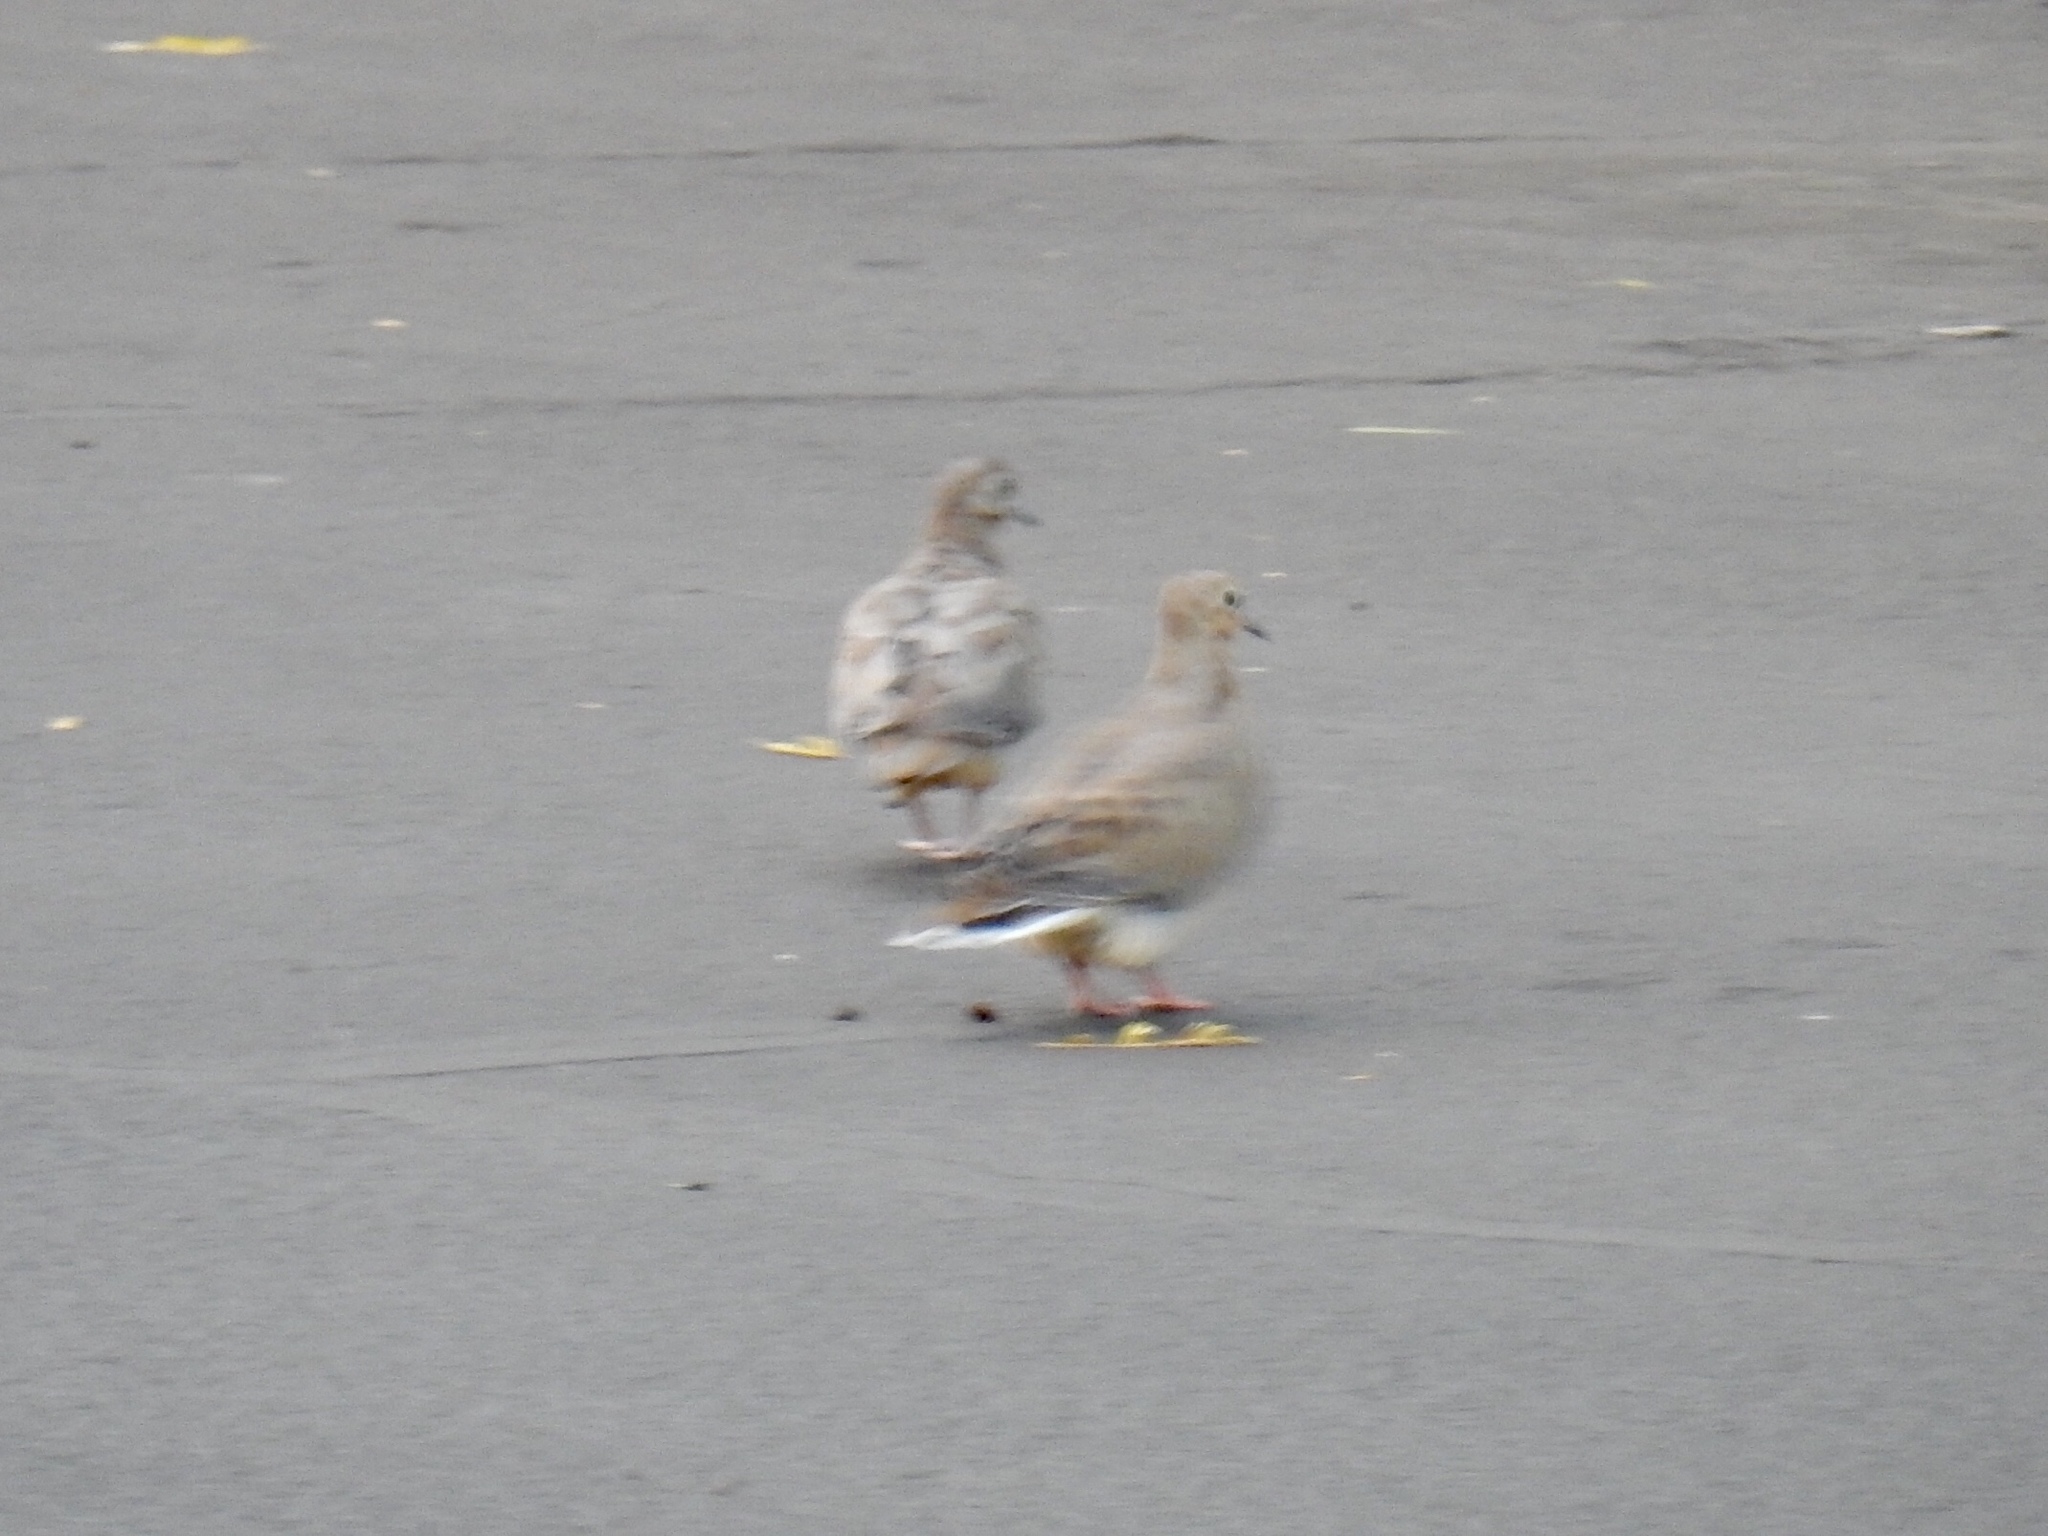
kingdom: Animalia
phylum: Chordata
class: Aves
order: Columbiformes
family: Columbidae
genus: Zenaida
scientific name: Zenaida macroura
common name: Mourning dove
